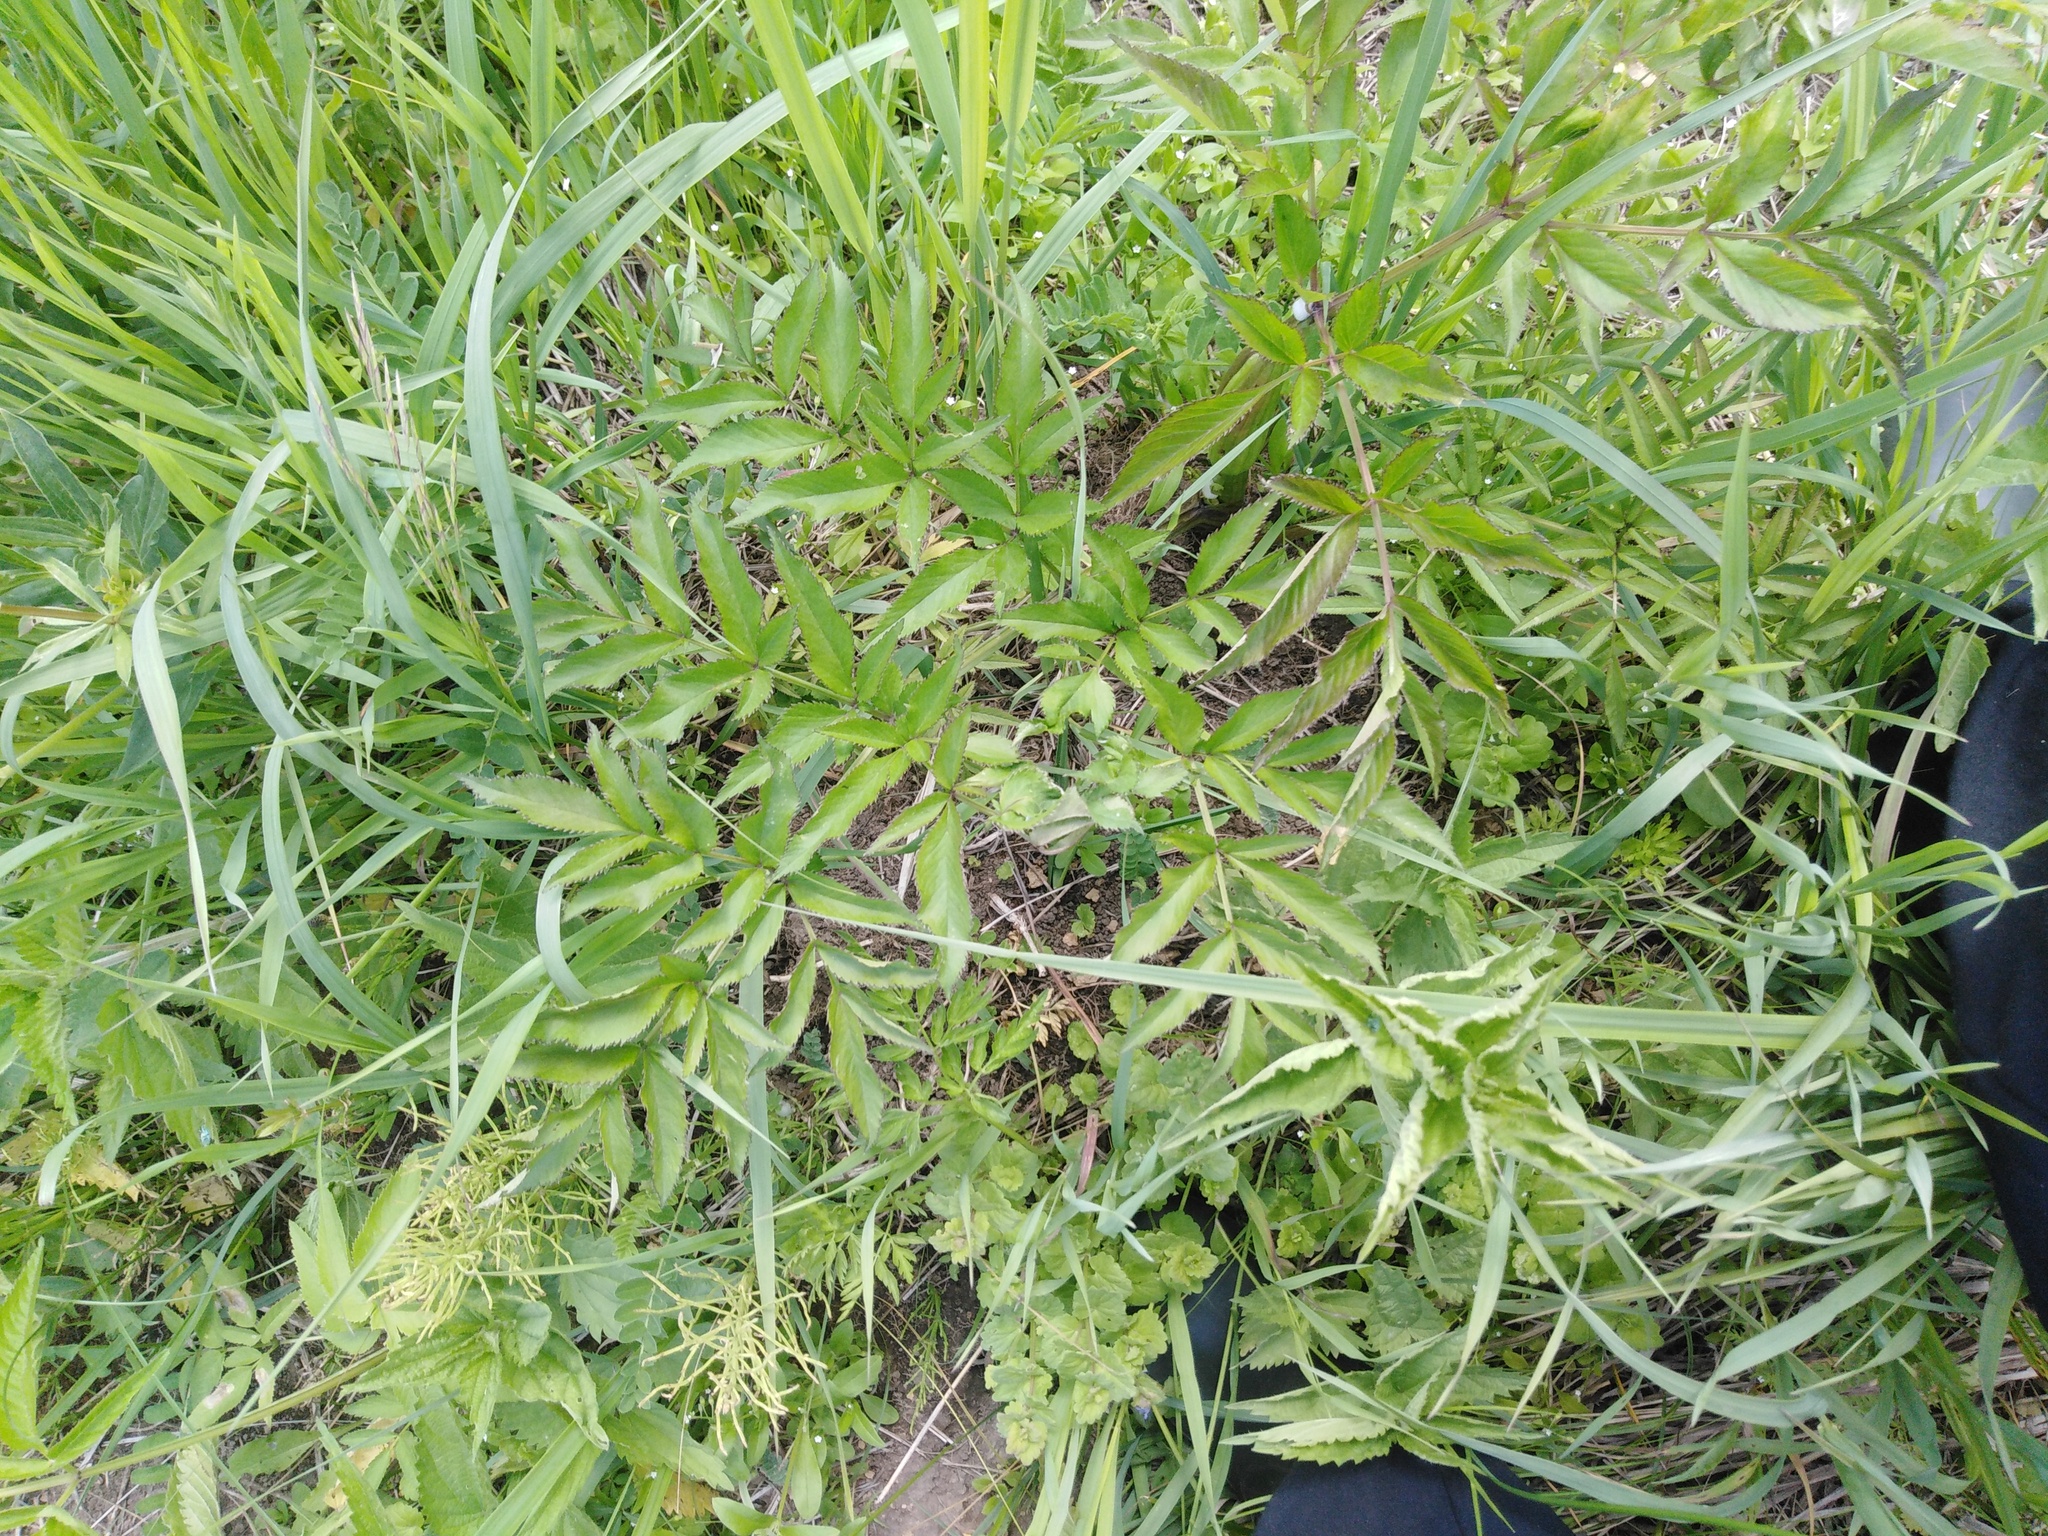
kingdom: Plantae
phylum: Tracheophyta
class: Magnoliopsida
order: Apiales
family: Apiaceae
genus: Angelica
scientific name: Angelica sylvestris
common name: Wild angelica
